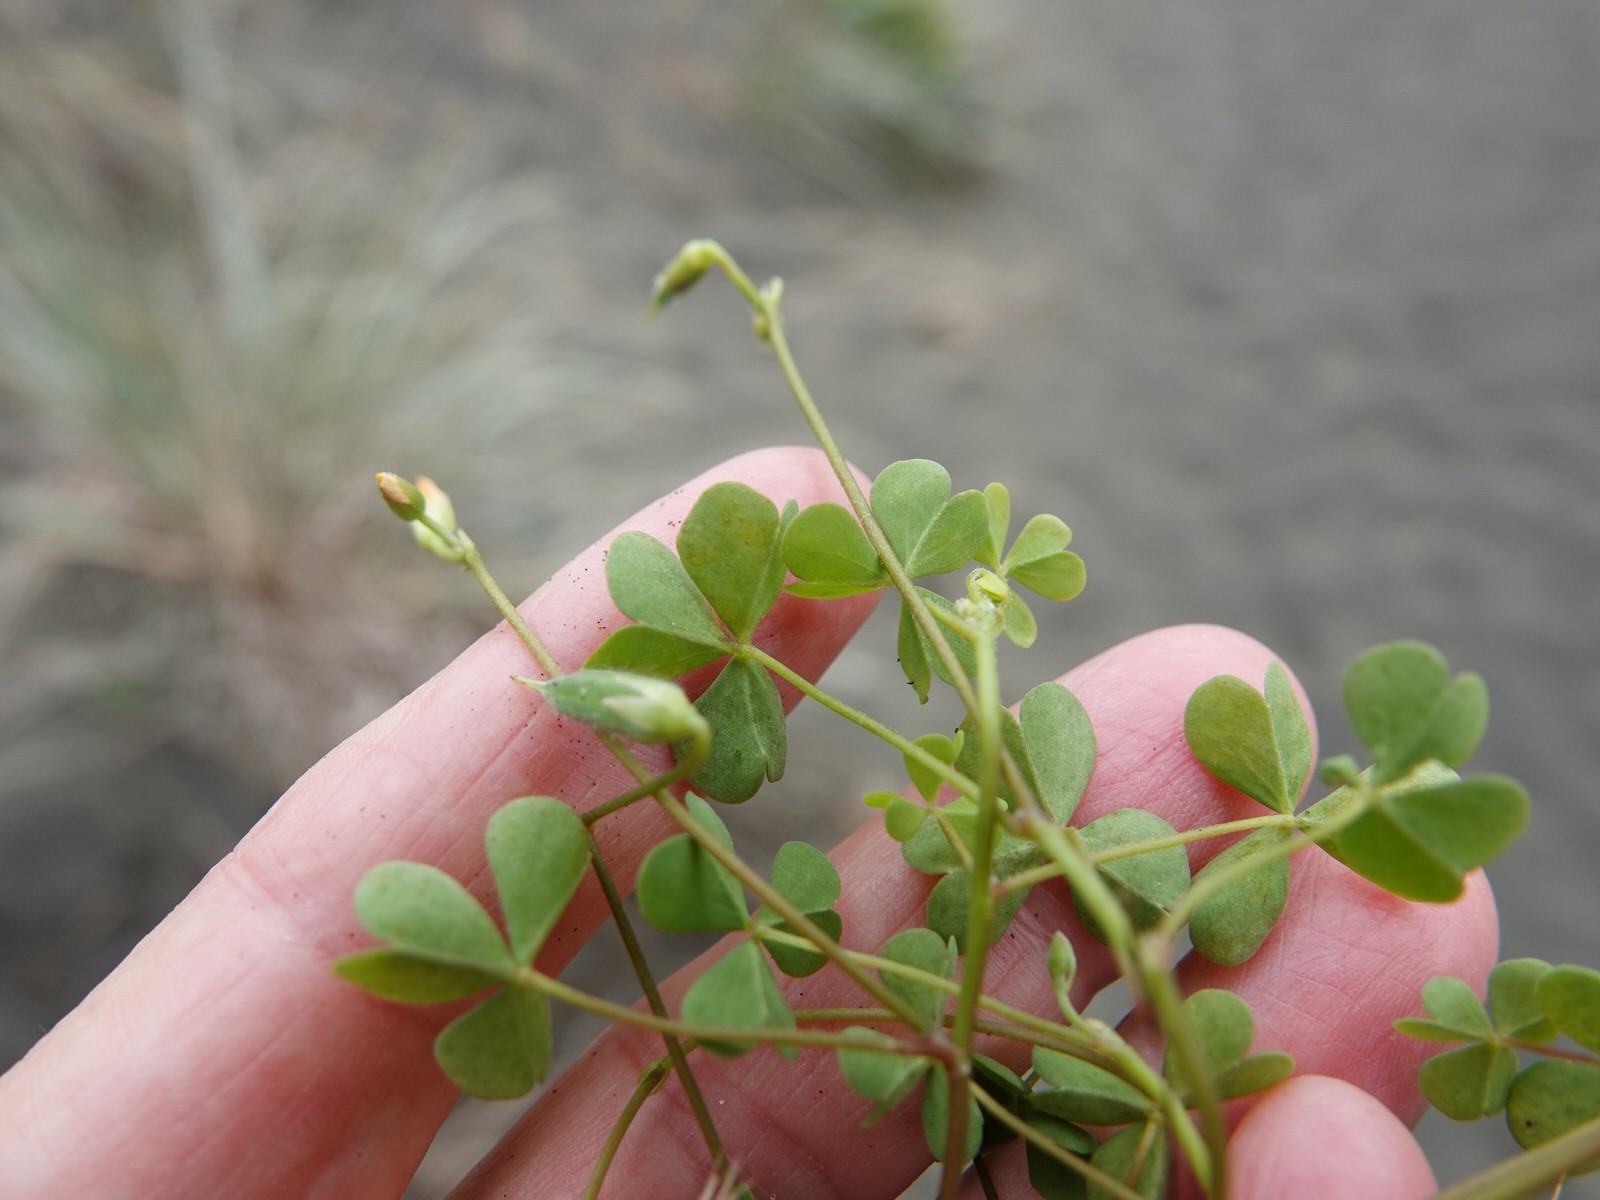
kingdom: Plantae
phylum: Tracheophyta
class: Magnoliopsida
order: Oxalidales
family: Oxalidaceae
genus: Oxalis
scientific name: Oxalis rubens
